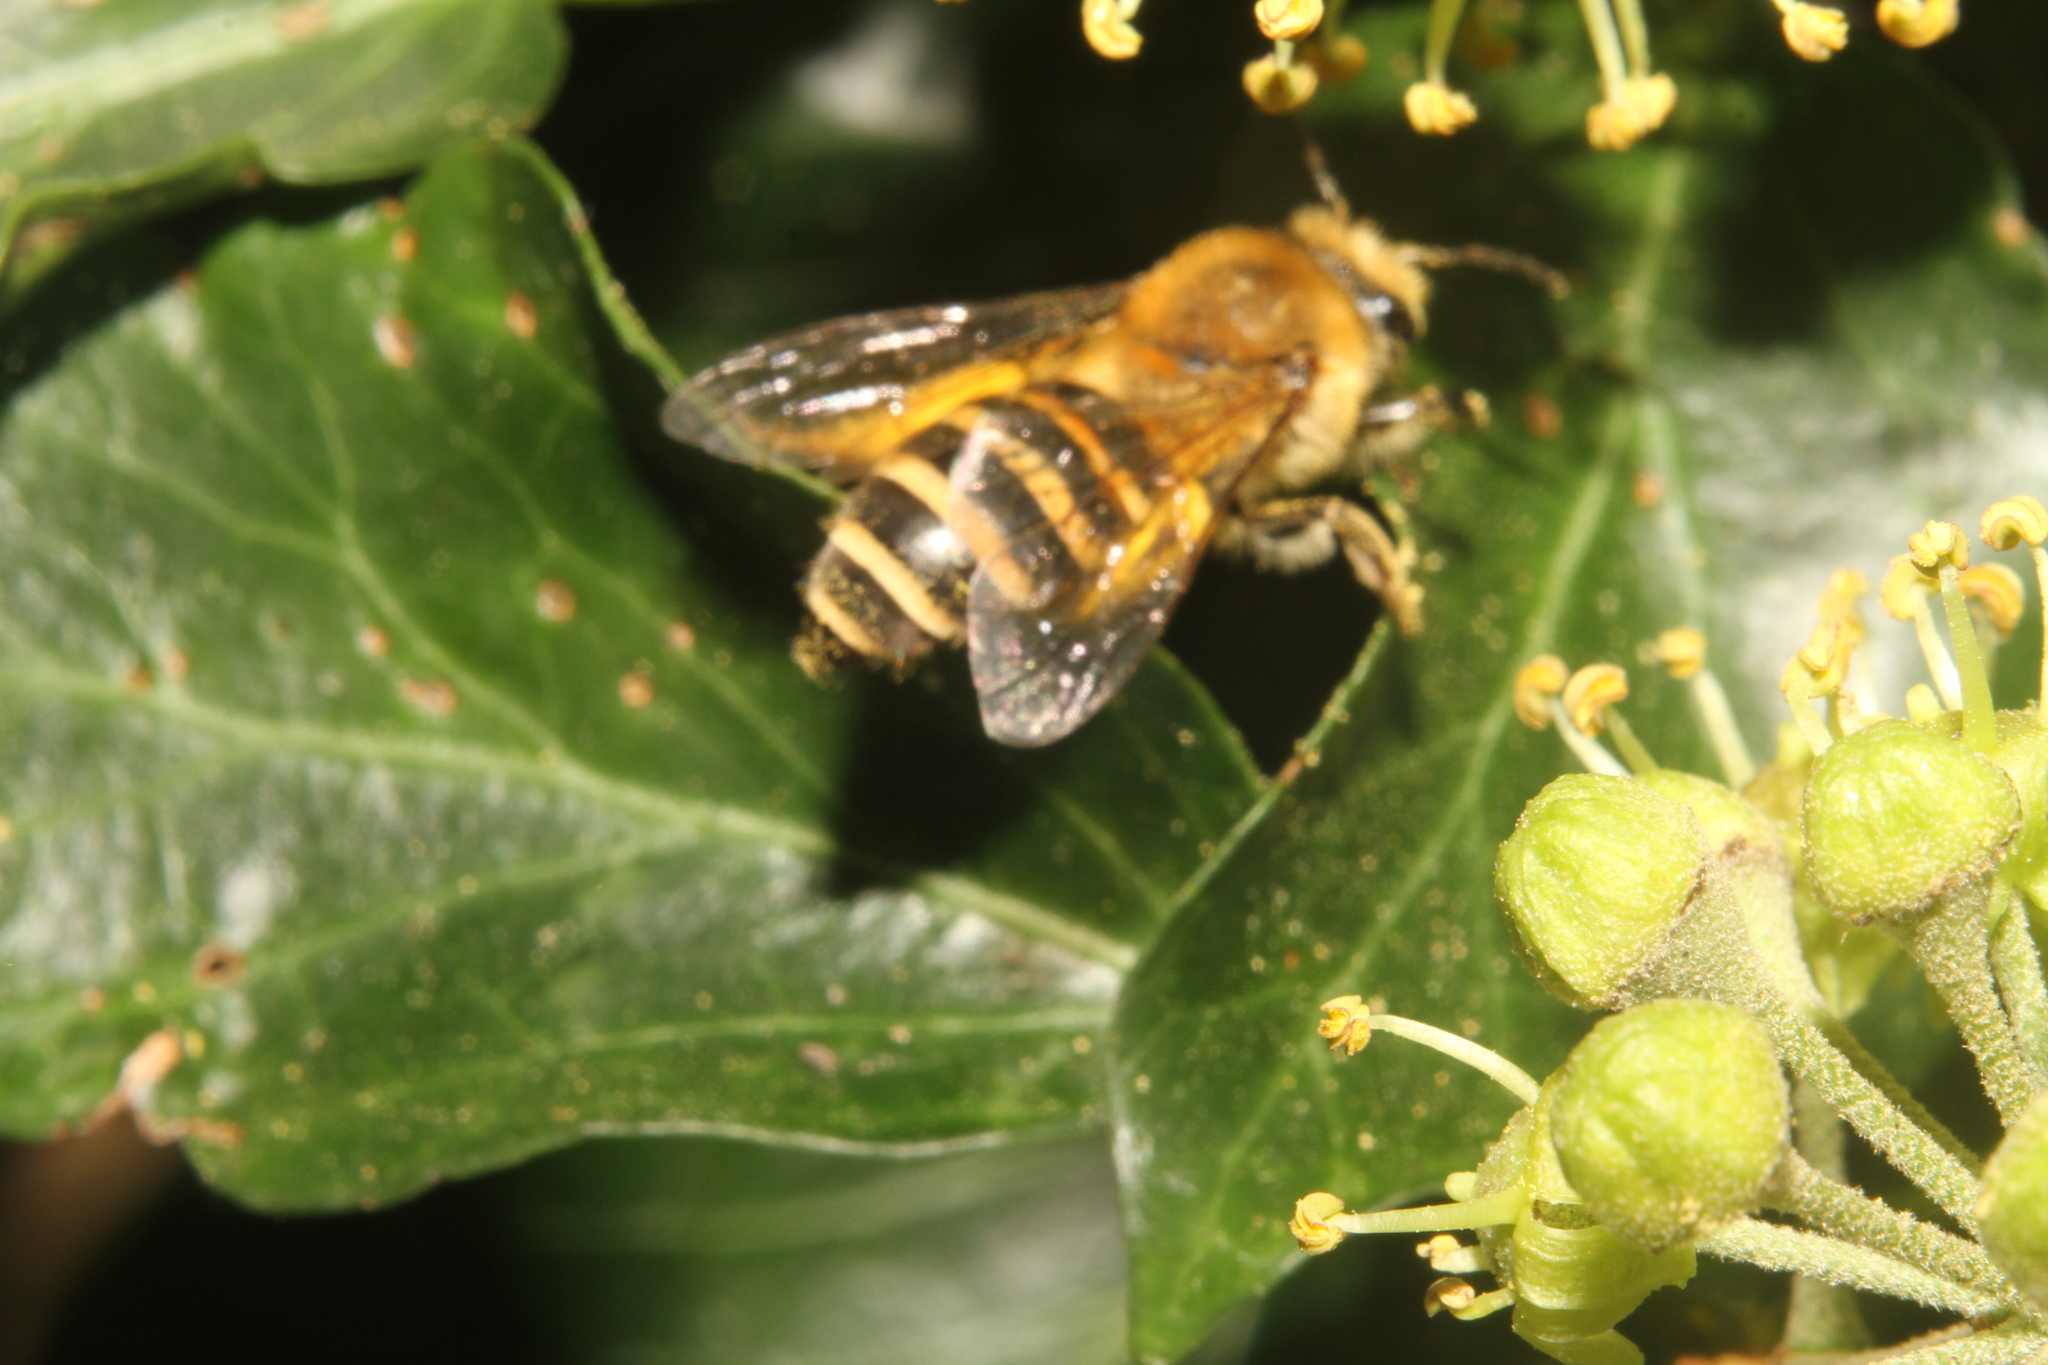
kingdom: Animalia
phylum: Arthropoda
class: Insecta
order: Hymenoptera
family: Colletidae
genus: Colletes
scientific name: Colletes hederae
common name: Ivy bee
